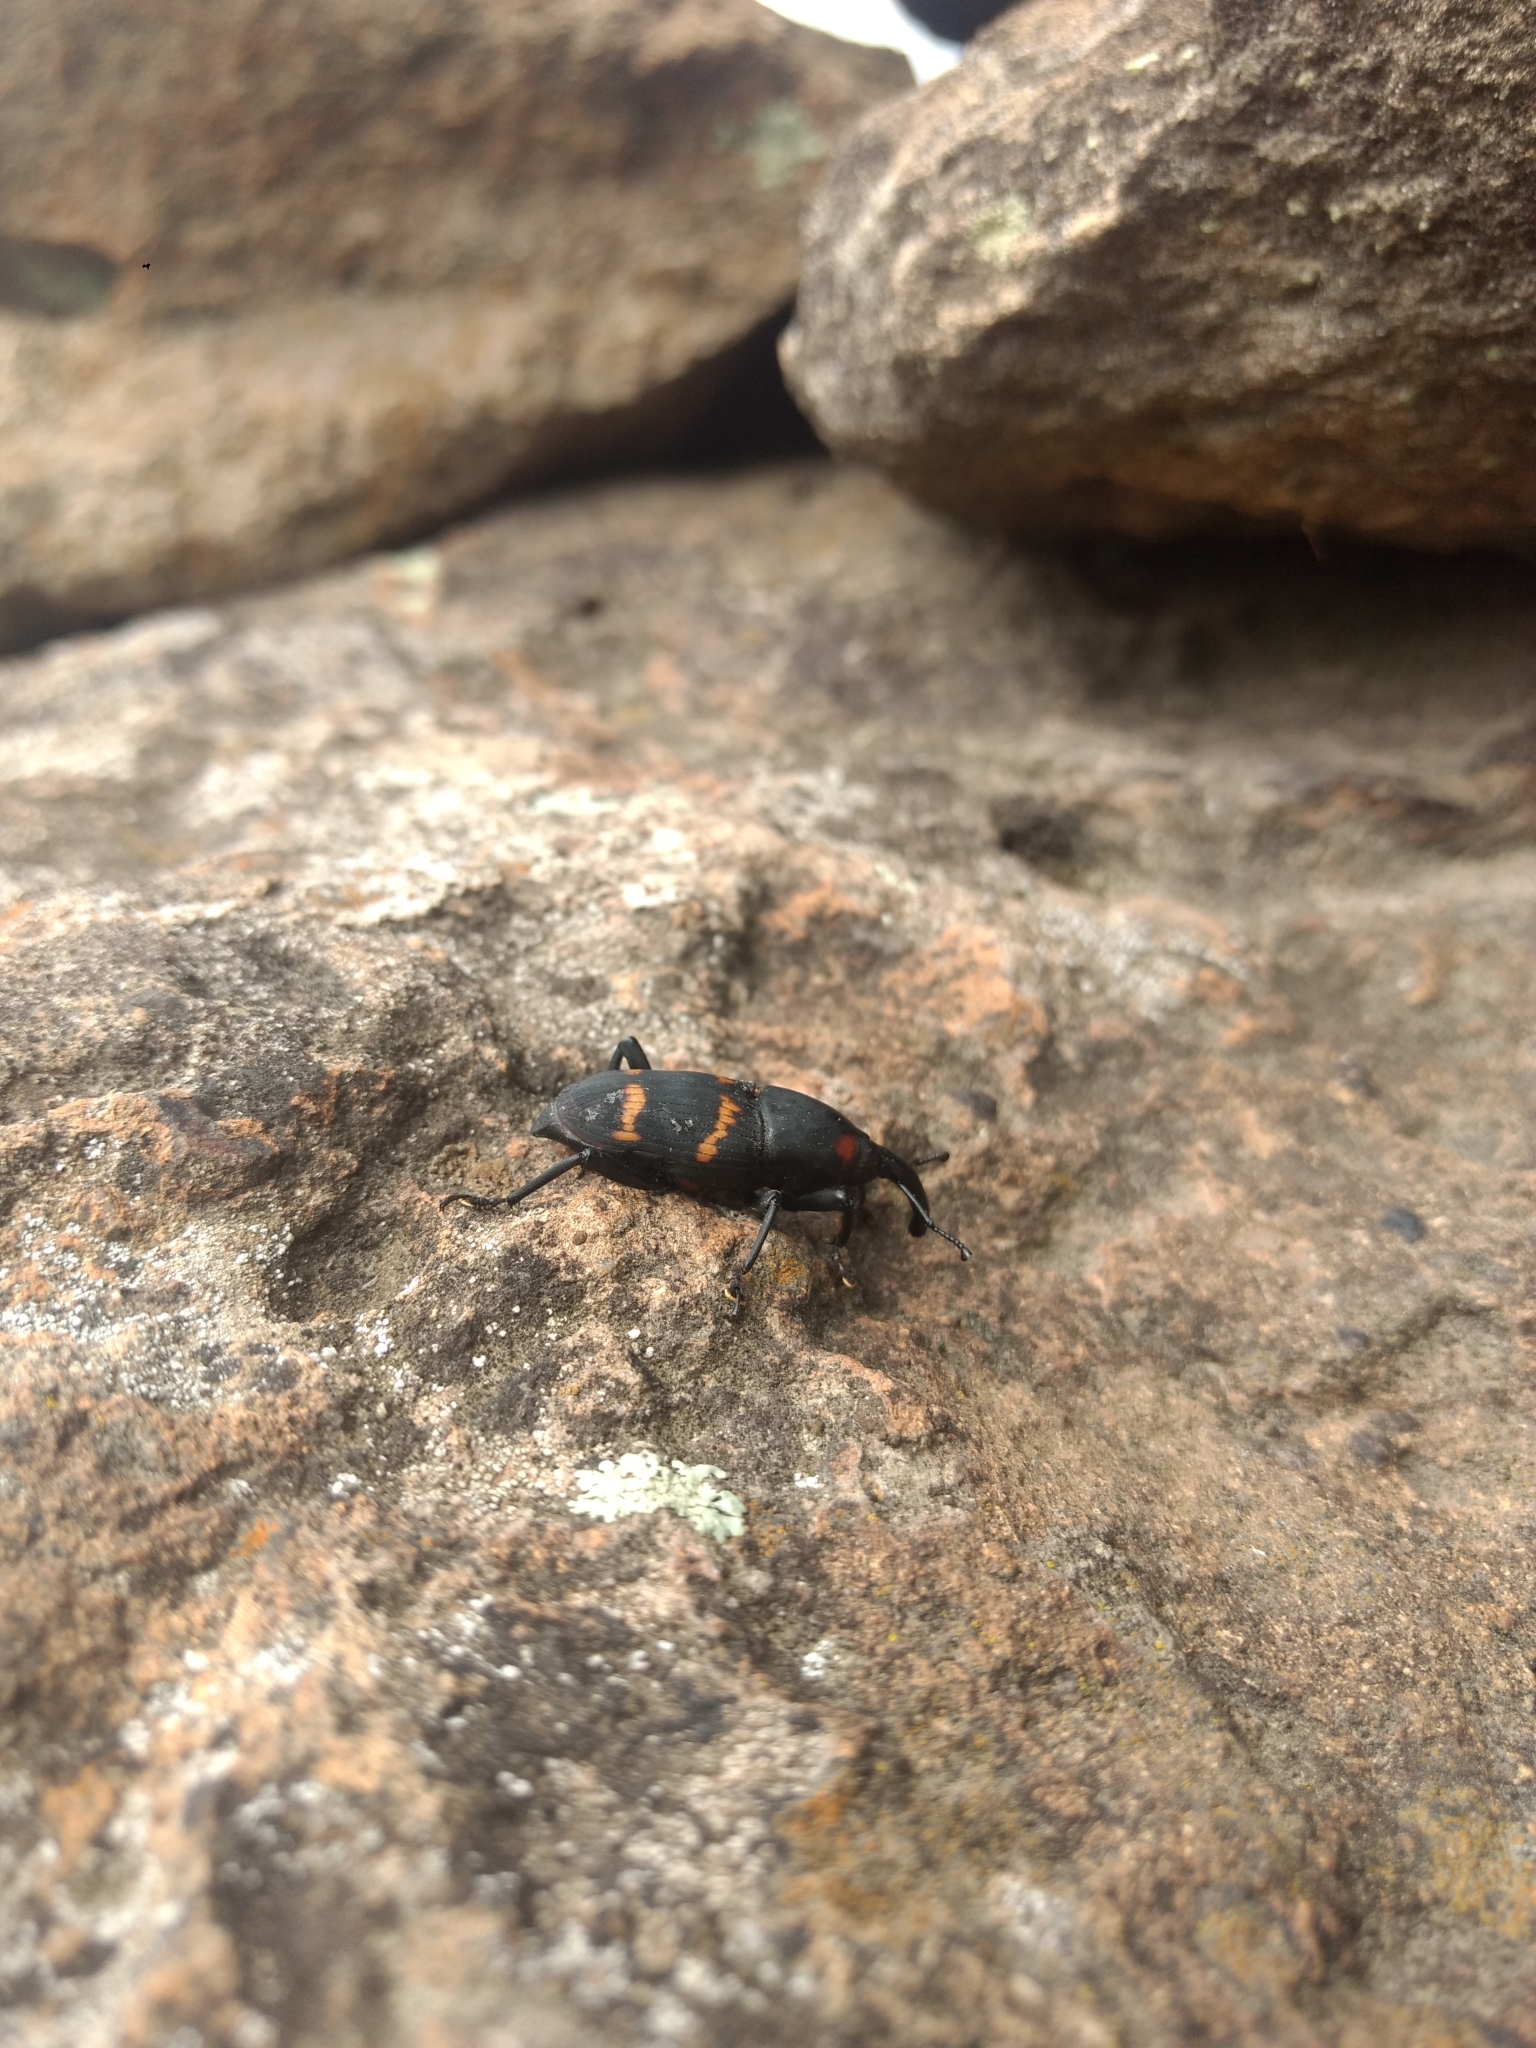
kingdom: Animalia
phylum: Arthropoda
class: Insecta
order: Coleoptera
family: Dryophthoridae
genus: Cactophagus
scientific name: Cactophagus spinolae
